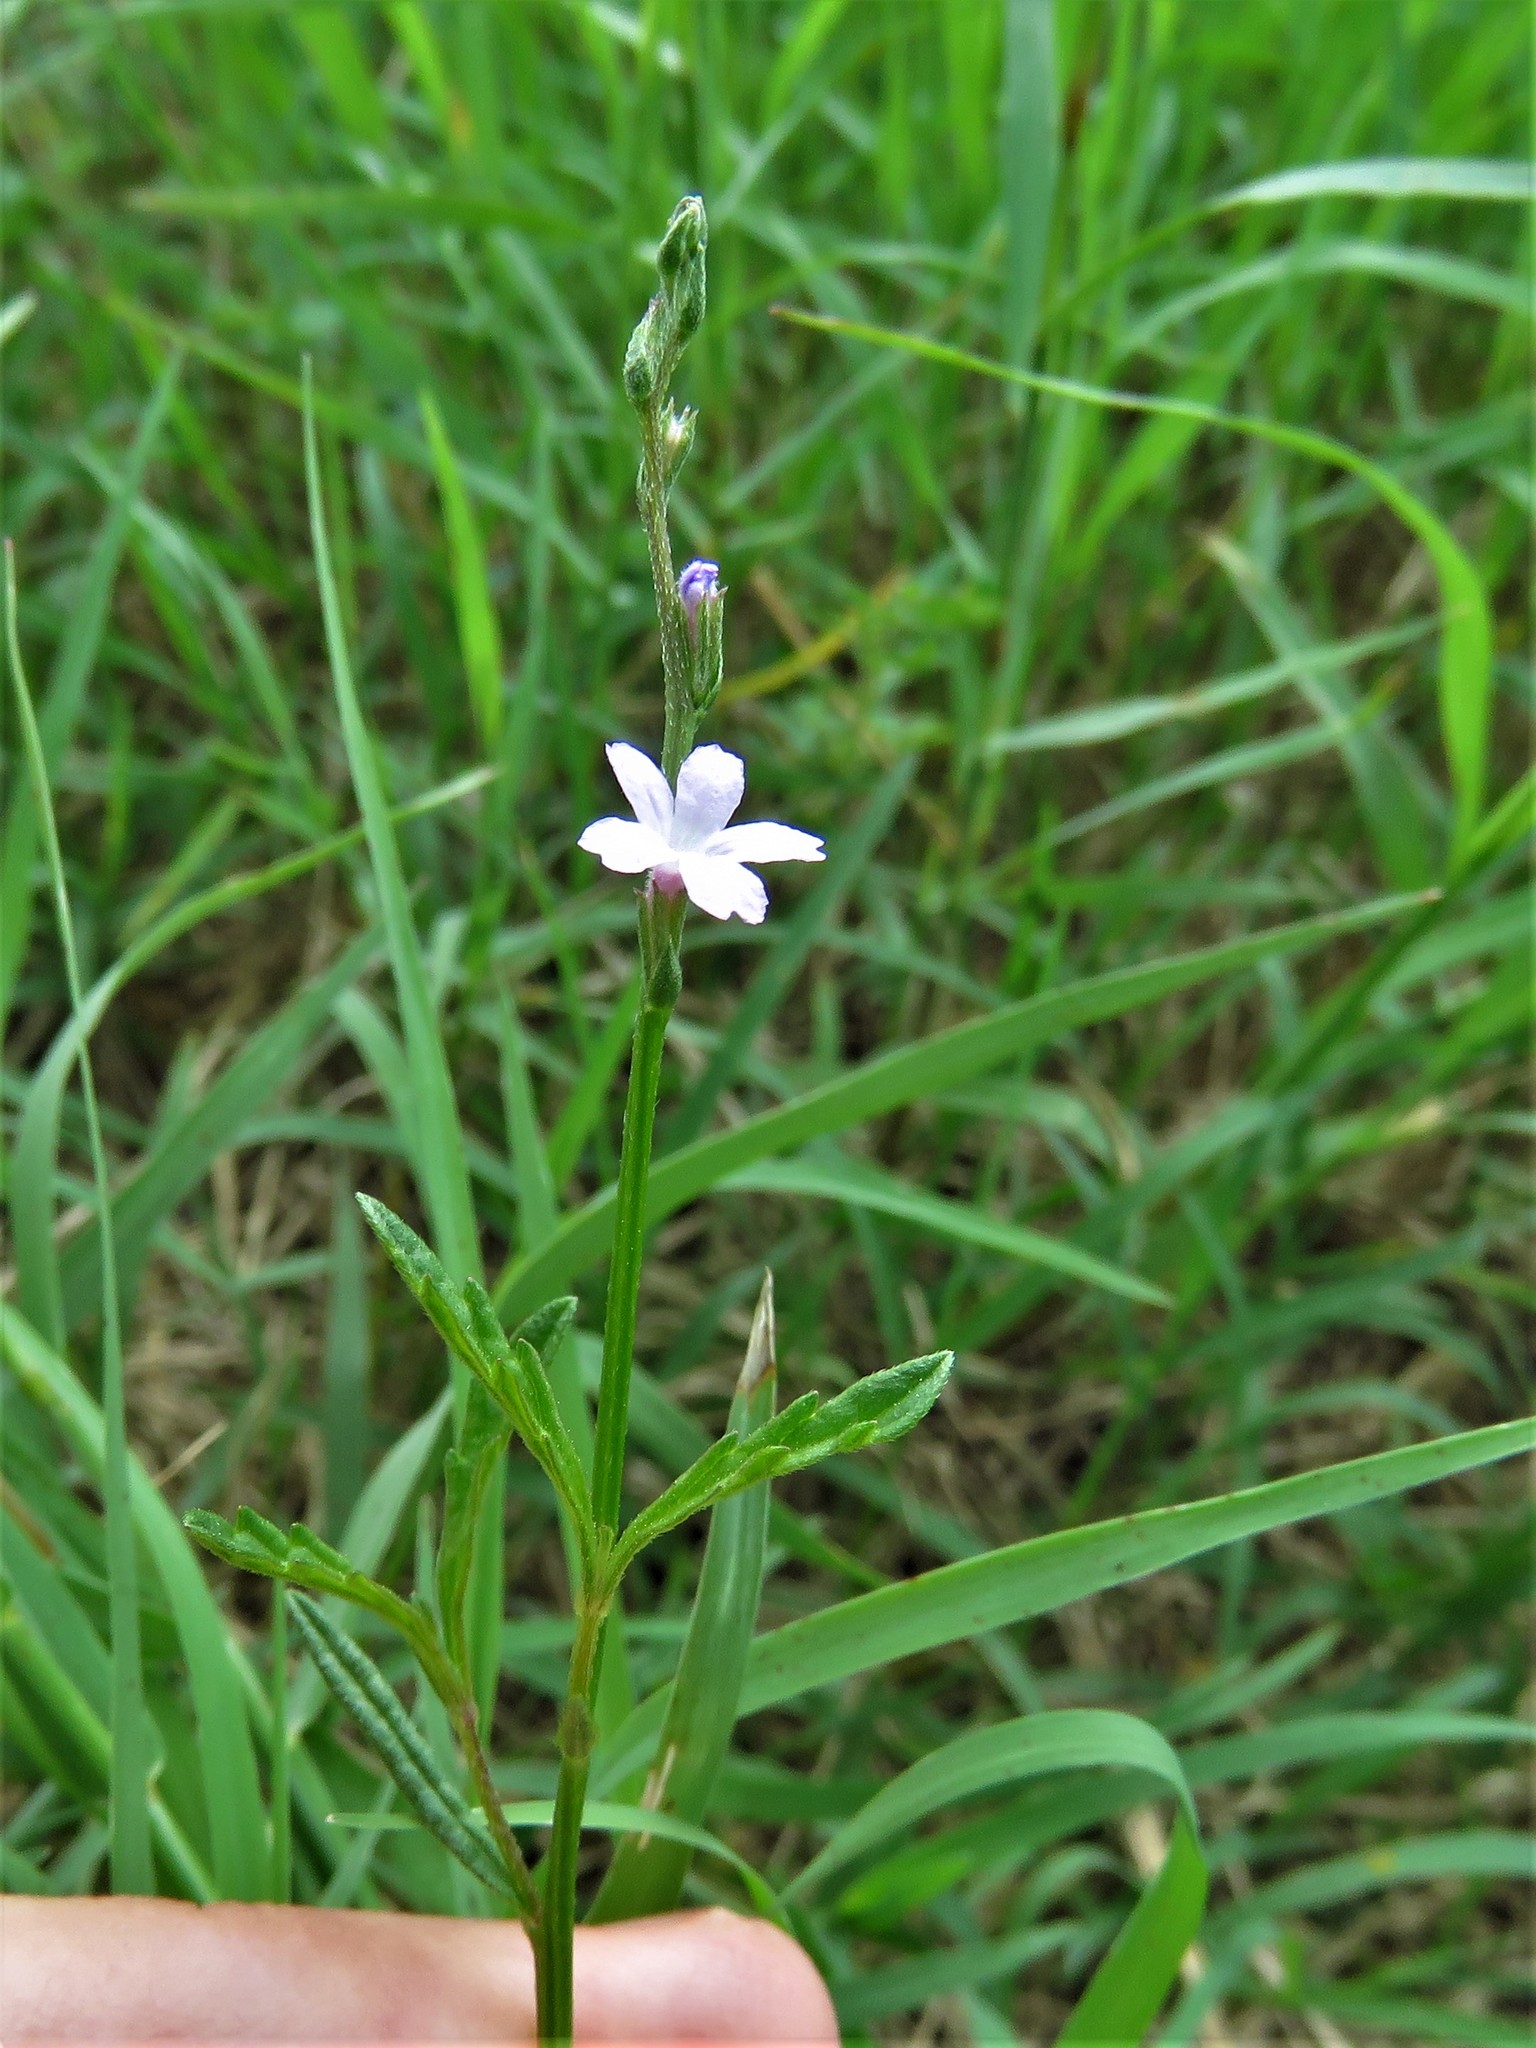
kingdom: Plantae
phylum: Tracheophyta
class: Magnoliopsida
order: Lamiales
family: Verbenaceae
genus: Verbena
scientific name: Verbena halei
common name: Texas vervain
